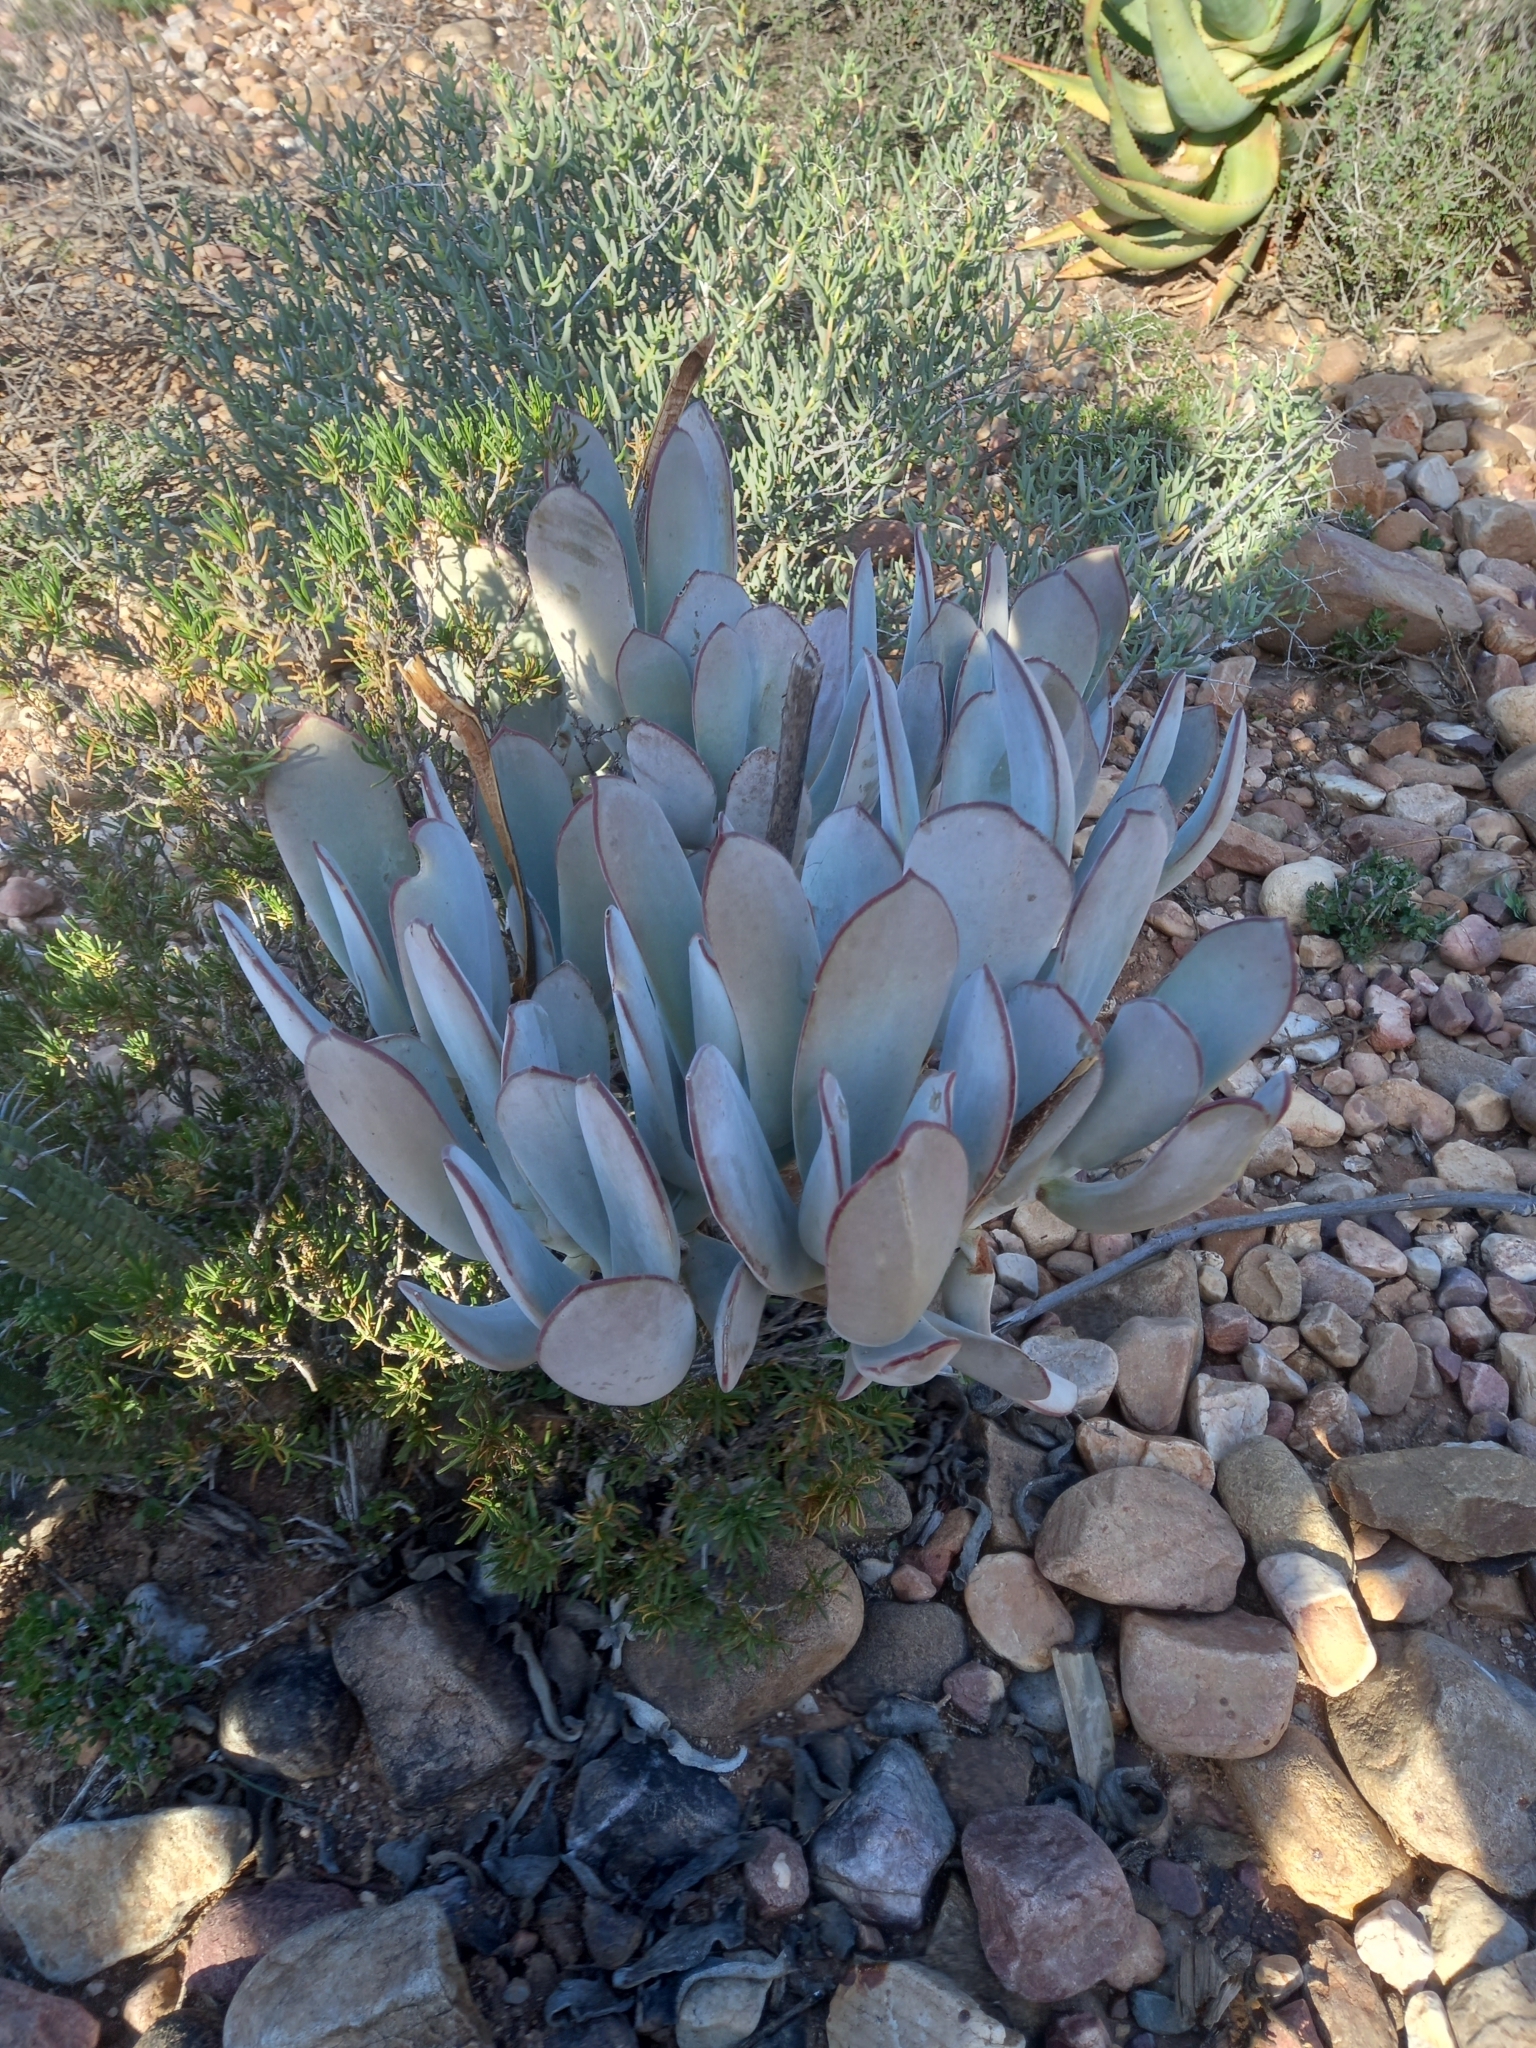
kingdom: Plantae
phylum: Tracheophyta
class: Magnoliopsida
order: Saxifragales
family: Crassulaceae
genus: Cotyledon
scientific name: Cotyledon orbiculata
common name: Pig's ear
